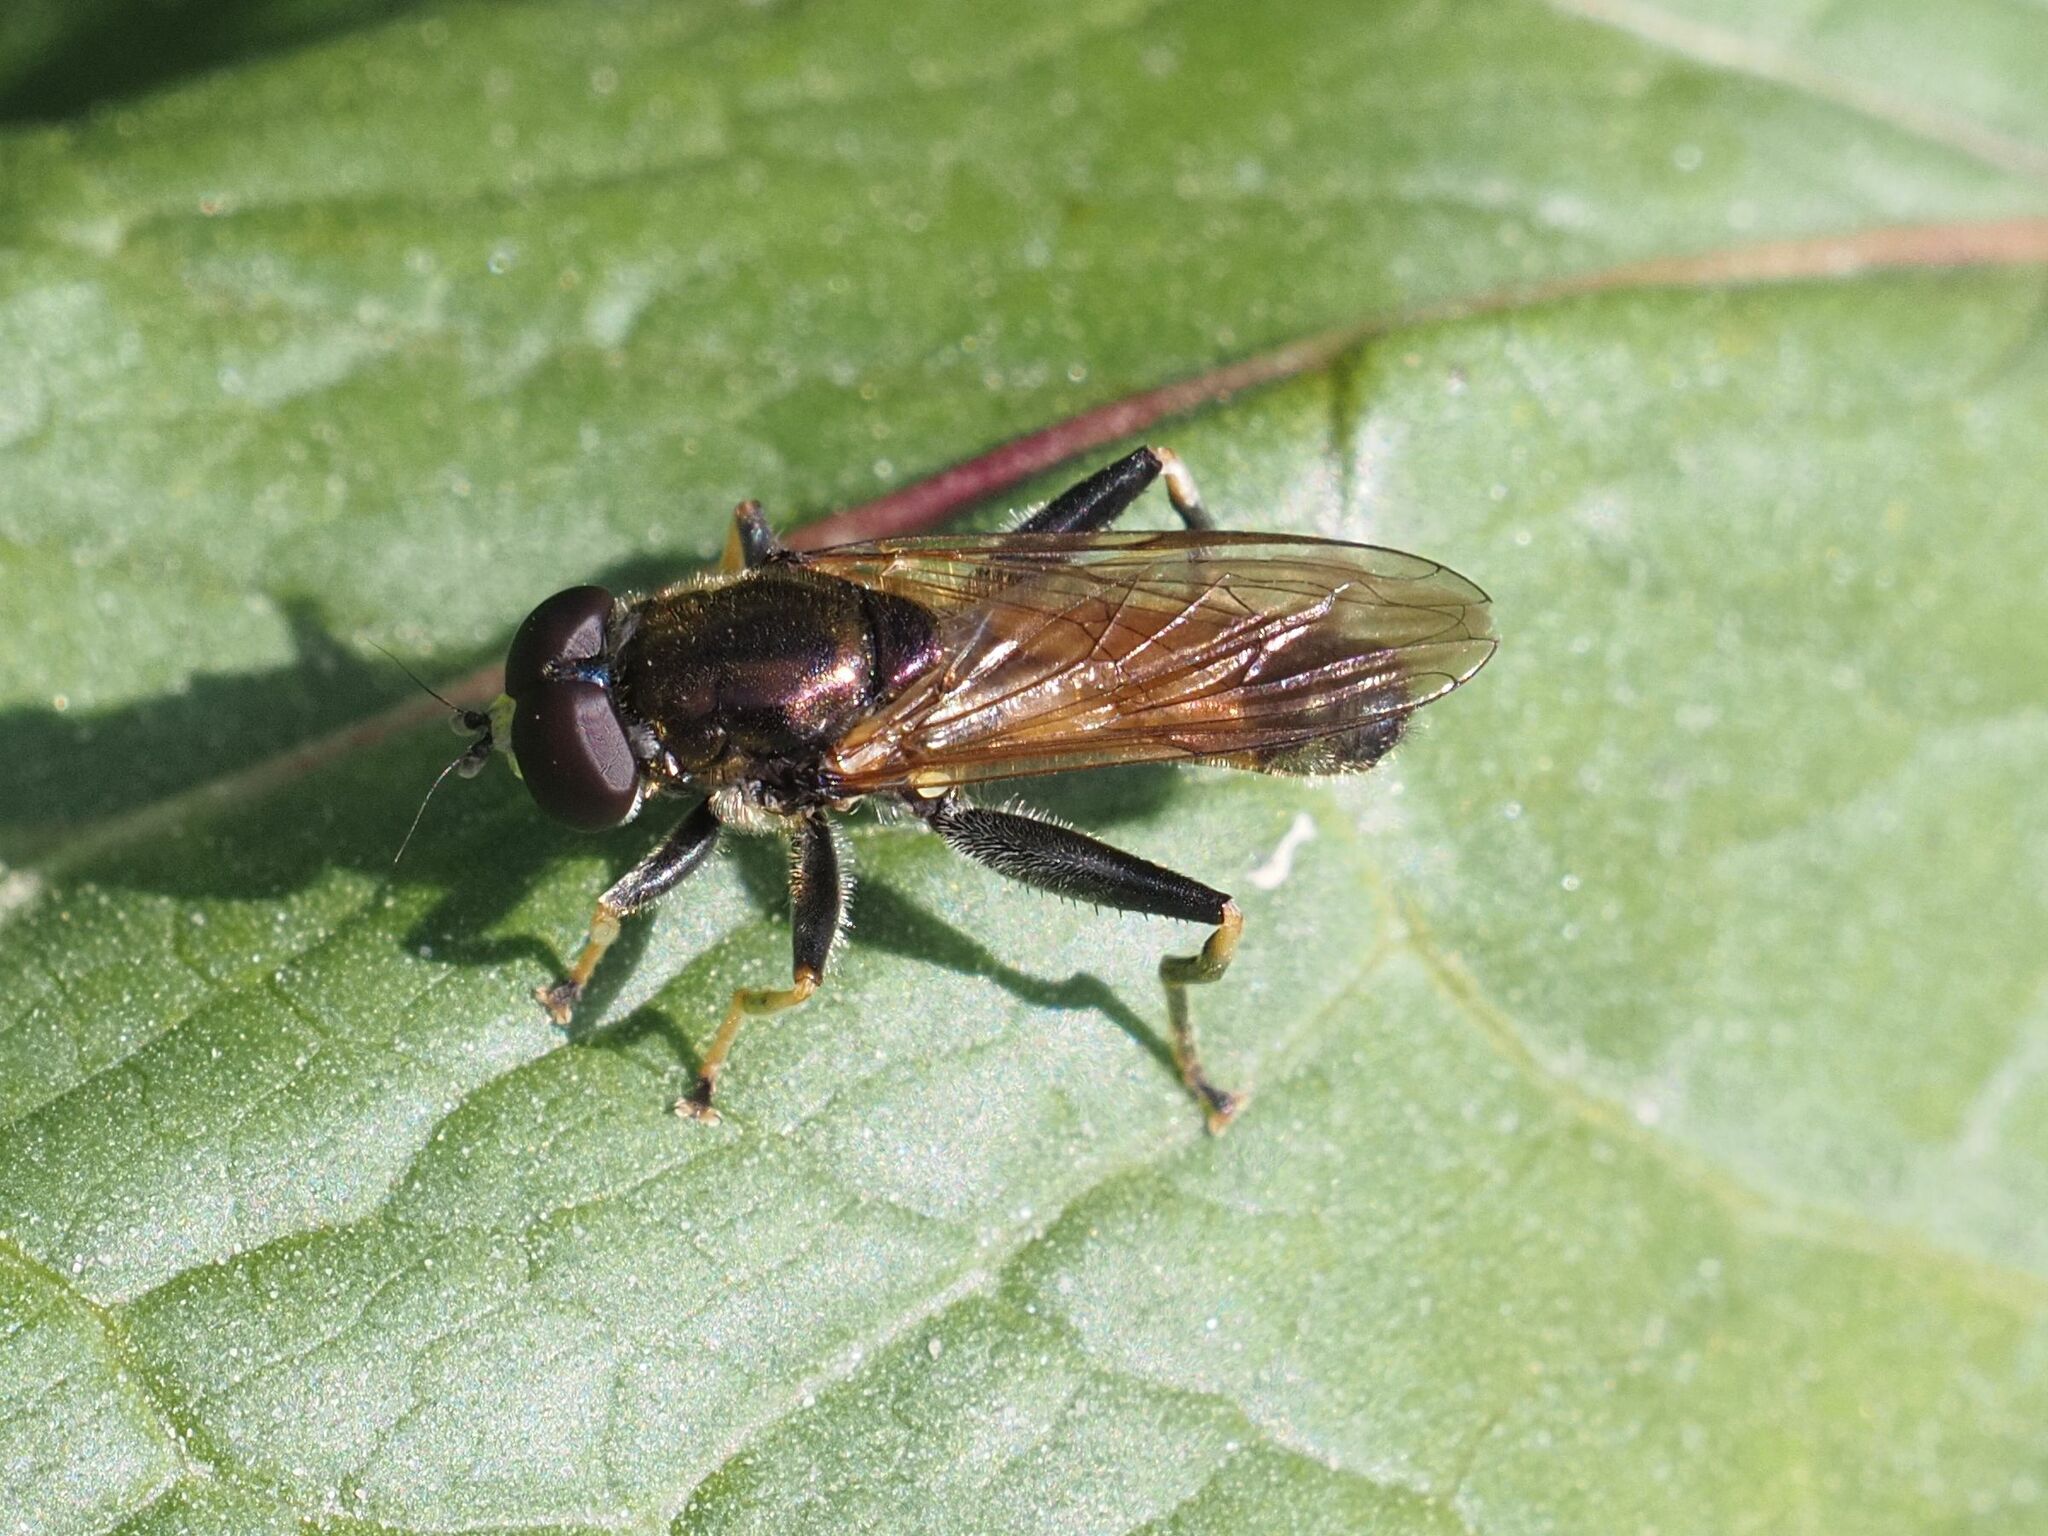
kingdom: Animalia
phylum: Arthropoda
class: Insecta
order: Diptera
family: Syrphidae
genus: Xylota
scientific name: Xylota segnis
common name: Brown-toed forest fly
